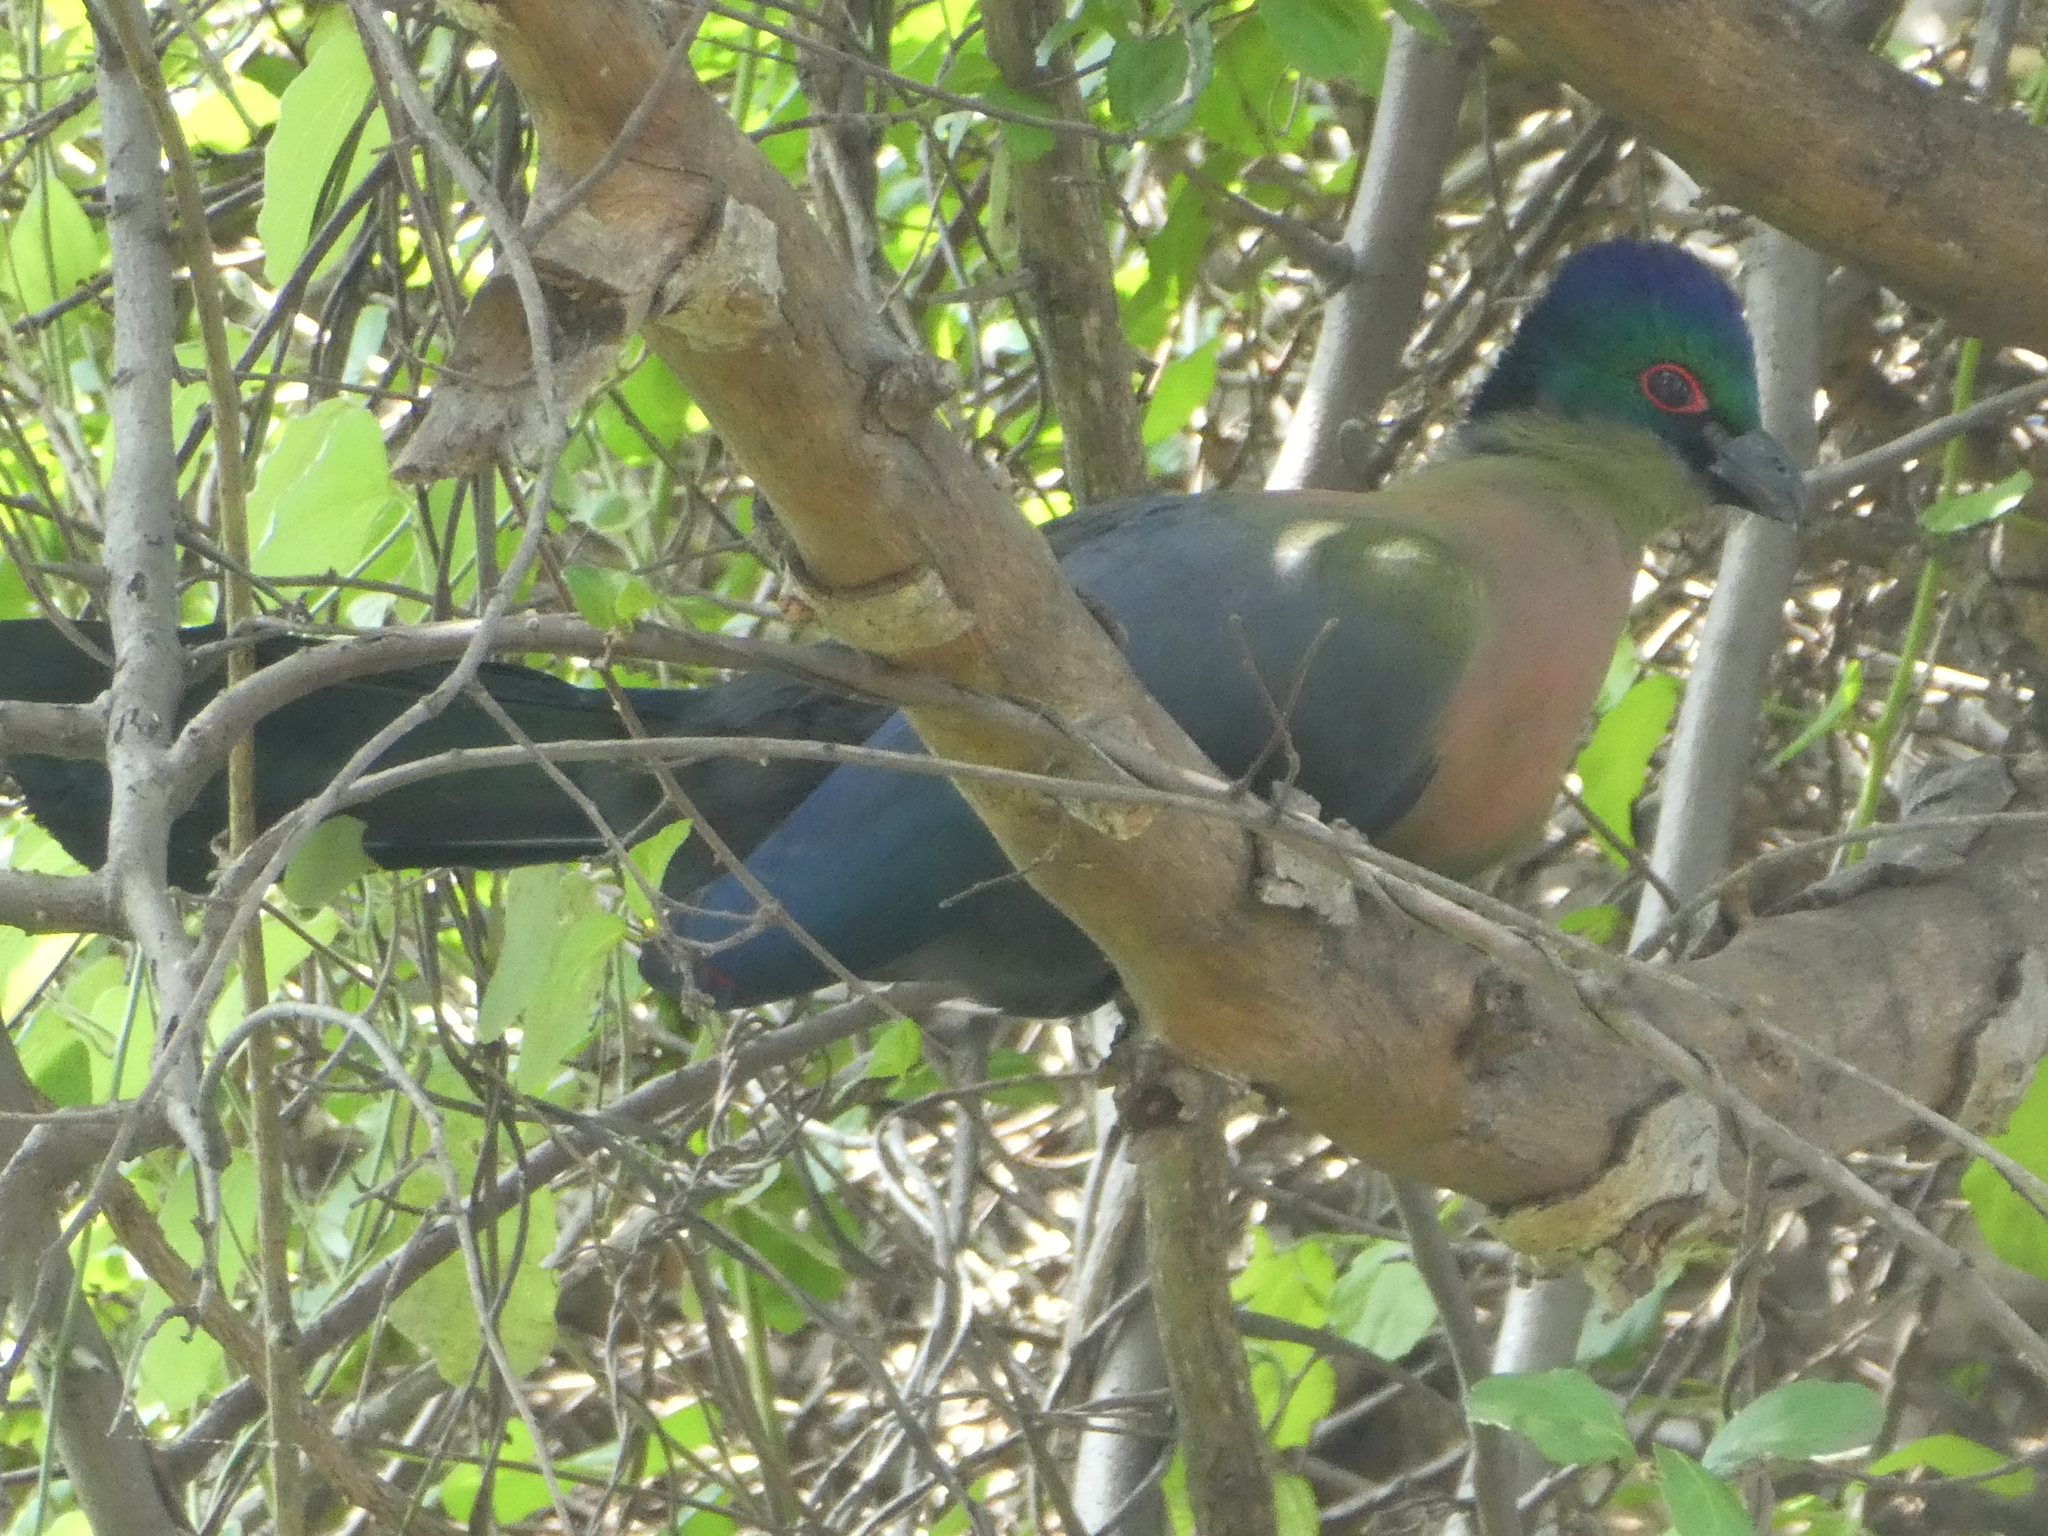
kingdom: Animalia
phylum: Chordata
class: Aves
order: Musophagiformes
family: Musophagidae
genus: Tauraco
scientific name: Tauraco porphyreolophus
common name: Purple-crested turaco
